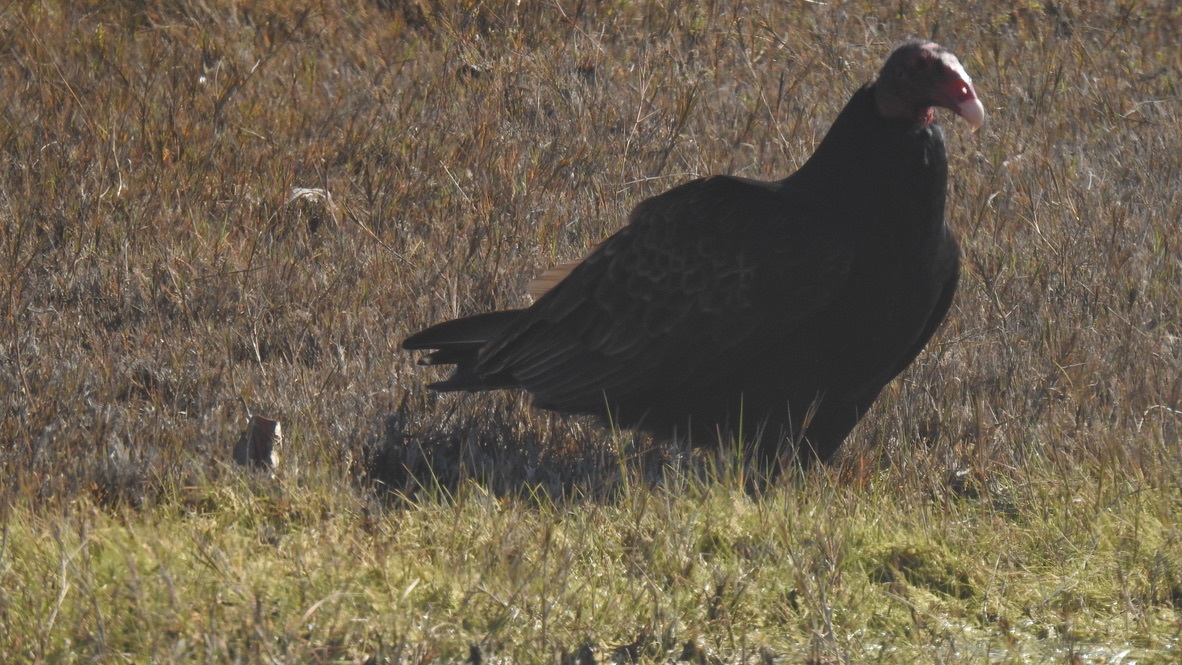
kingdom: Animalia
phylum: Chordata
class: Aves
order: Accipitriformes
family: Cathartidae
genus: Cathartes
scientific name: Cathartes aura
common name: Turkey vulture
